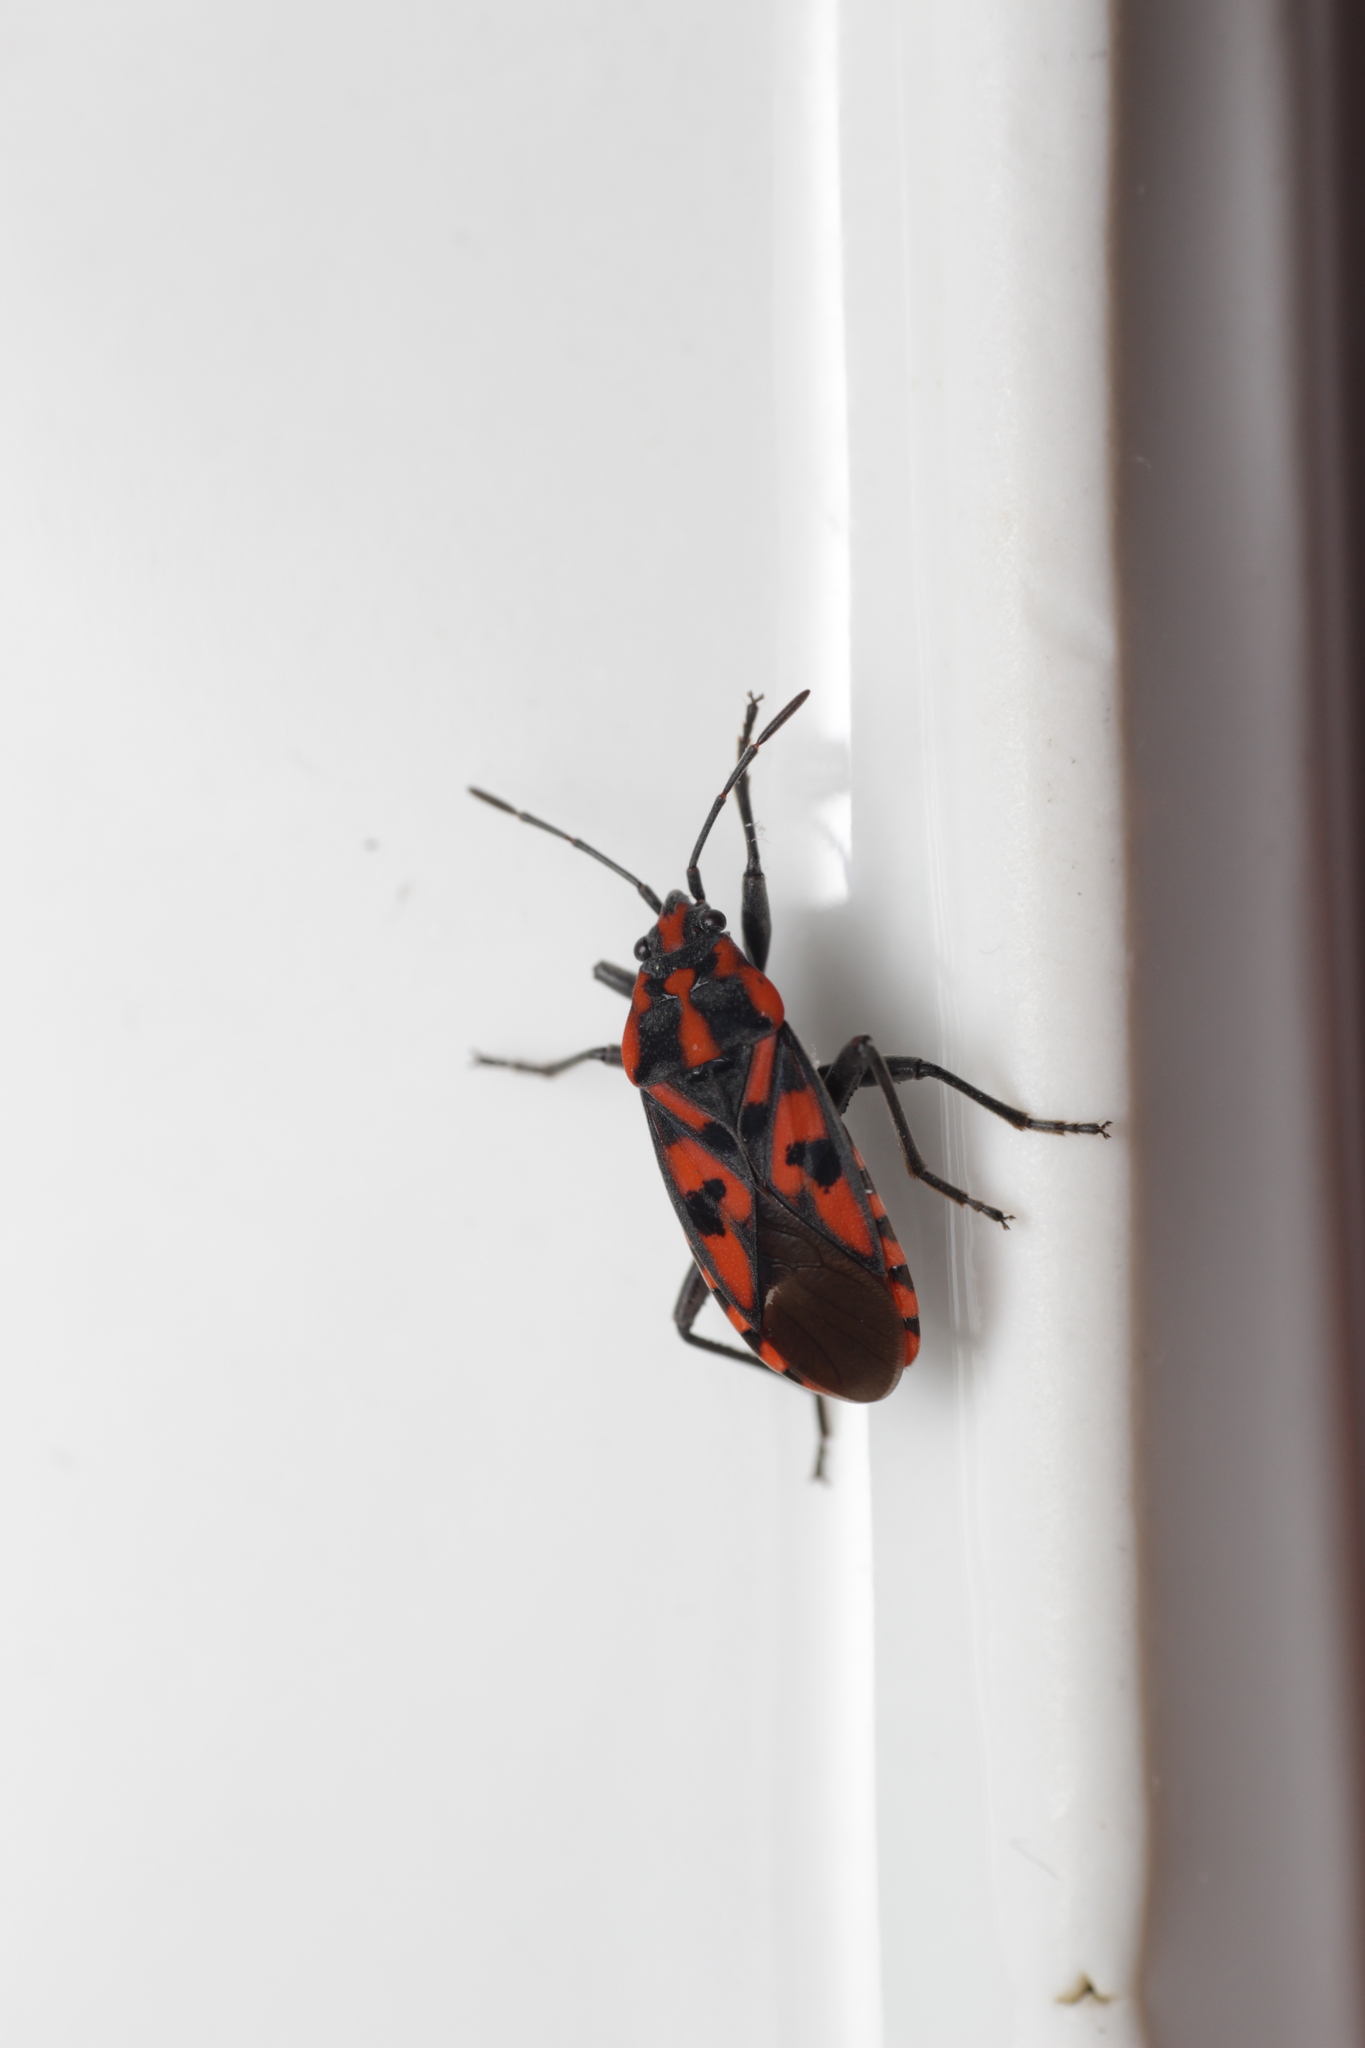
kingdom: Animalia
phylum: Arthropoda
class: Insecta
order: Hemiptera
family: Lygaeidae
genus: Spilostethus
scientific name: Spilostethus saxatilis
